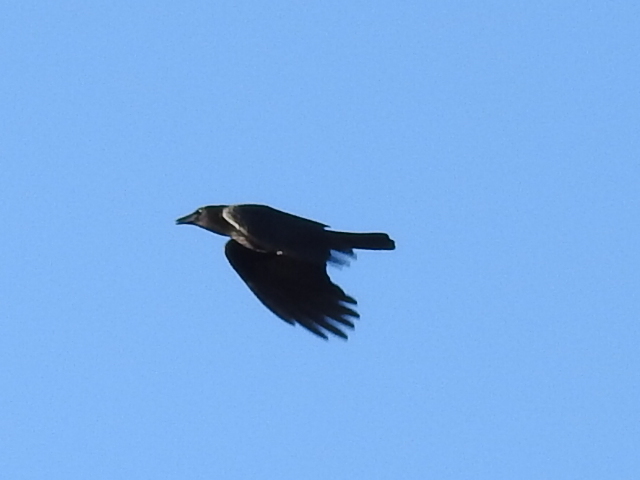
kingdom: Animalia
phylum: Chordata
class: Aves
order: Passeriformes
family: Corvidae
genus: Corvus
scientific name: Corvus brachyrhynchos
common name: American crow
